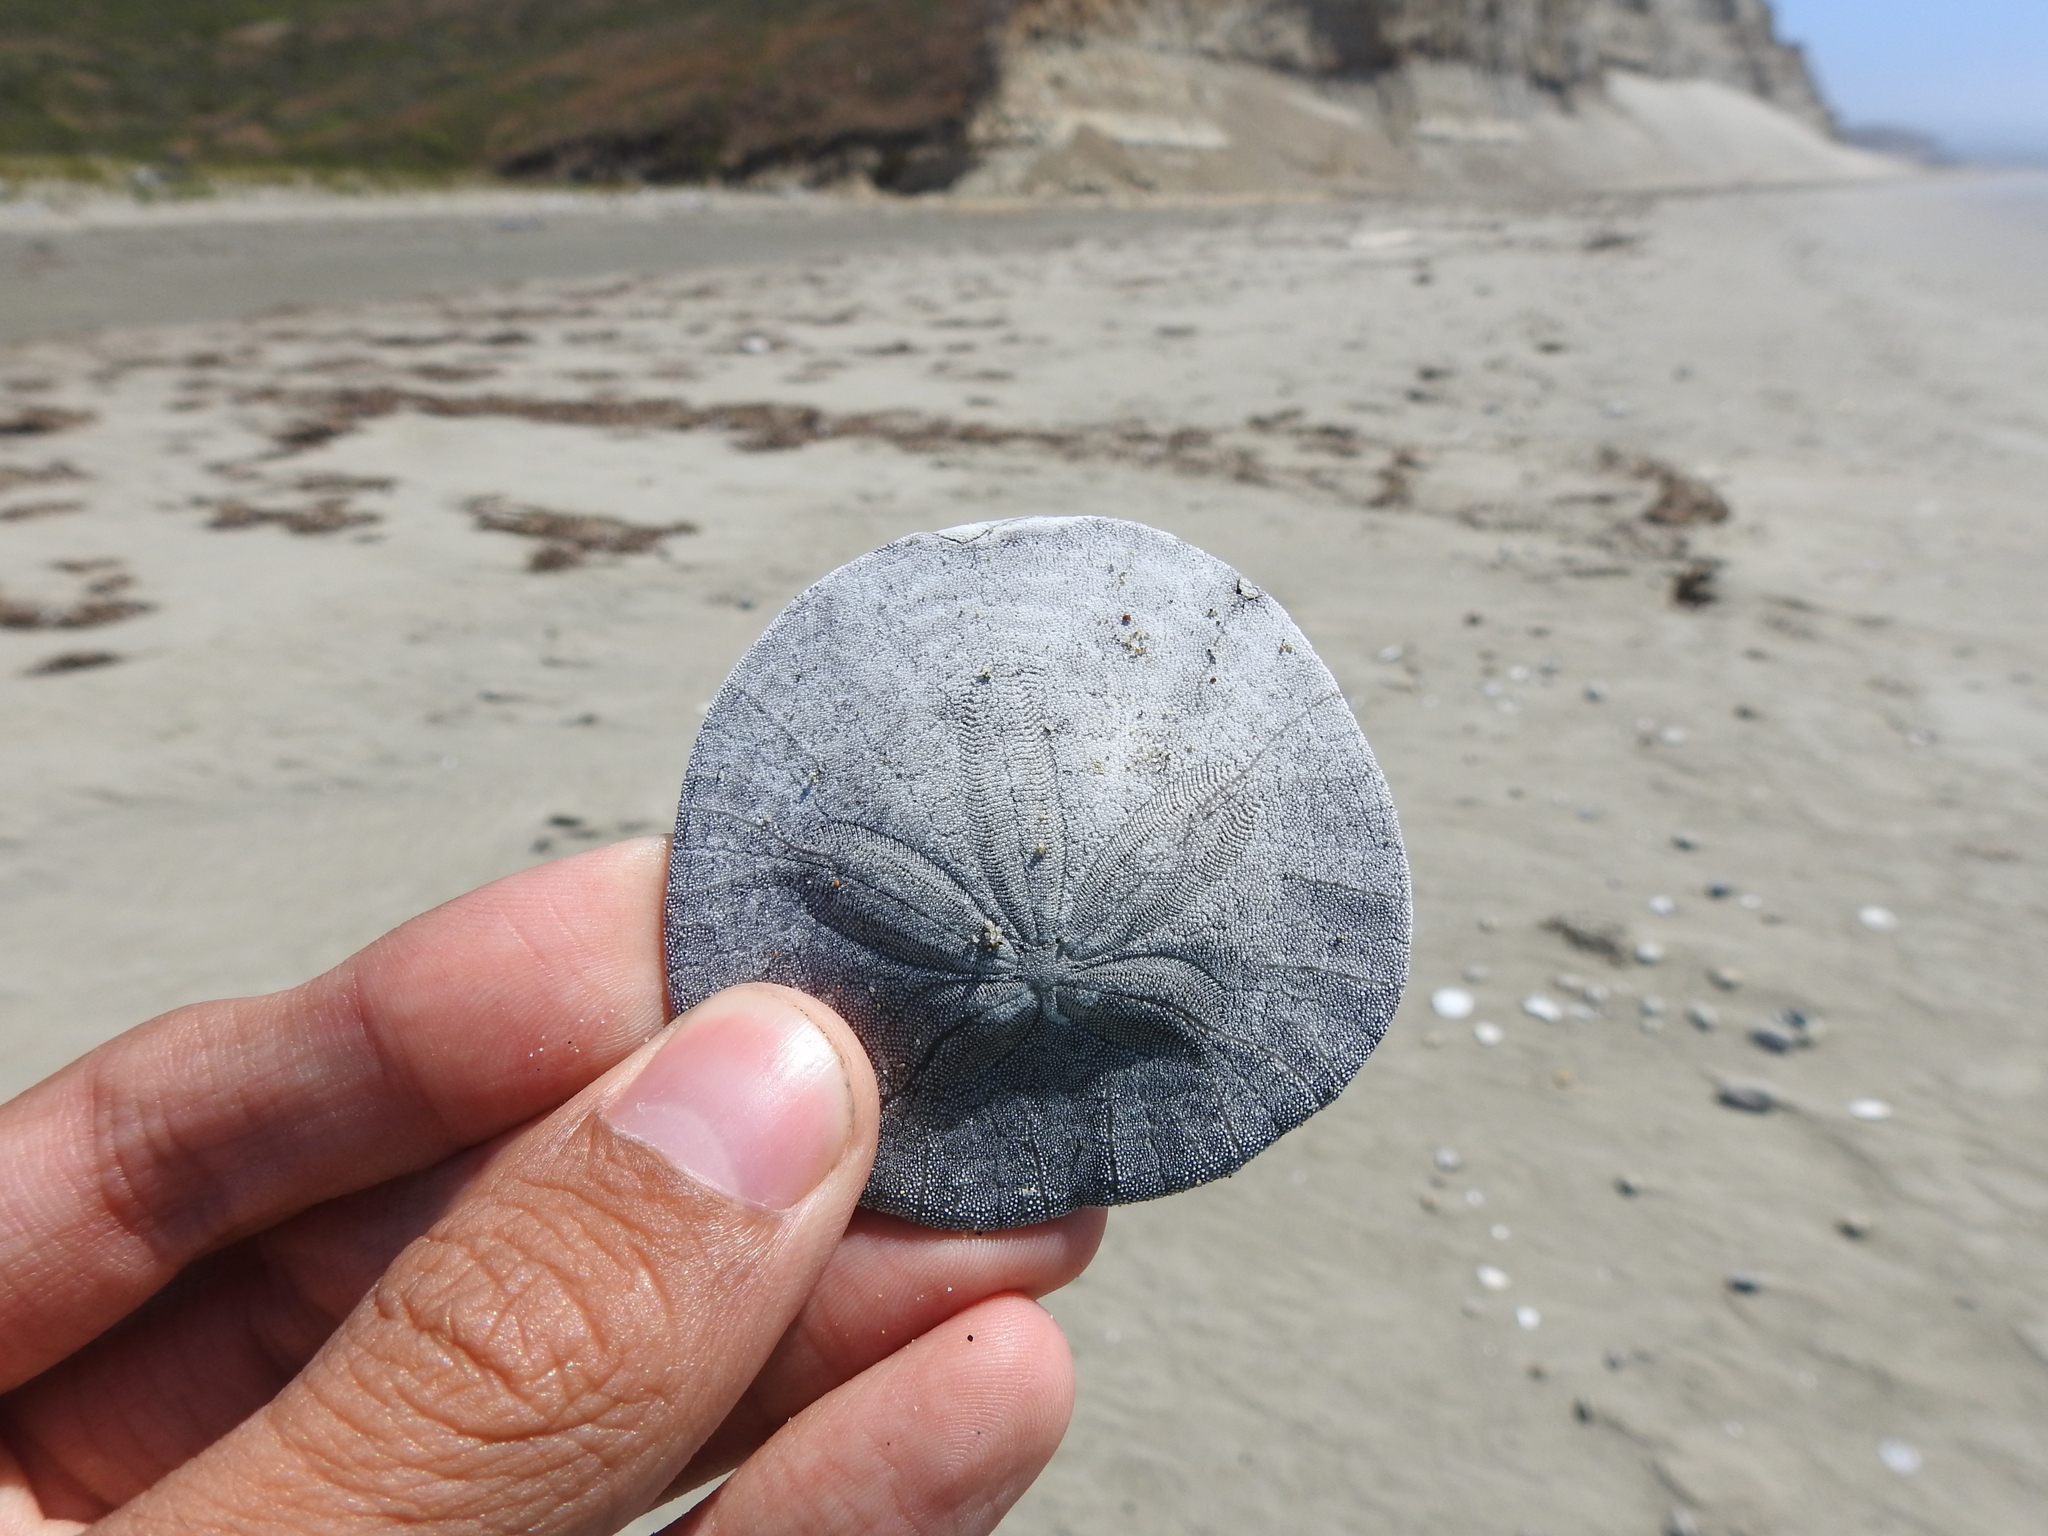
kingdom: Animalia
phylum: Echinodermata
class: Echinoidea
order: Echinolampadacea
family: Dendrasteridae
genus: Dendraster
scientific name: Dendraster excentricus
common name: Eccentric sand dollar sea urchin
